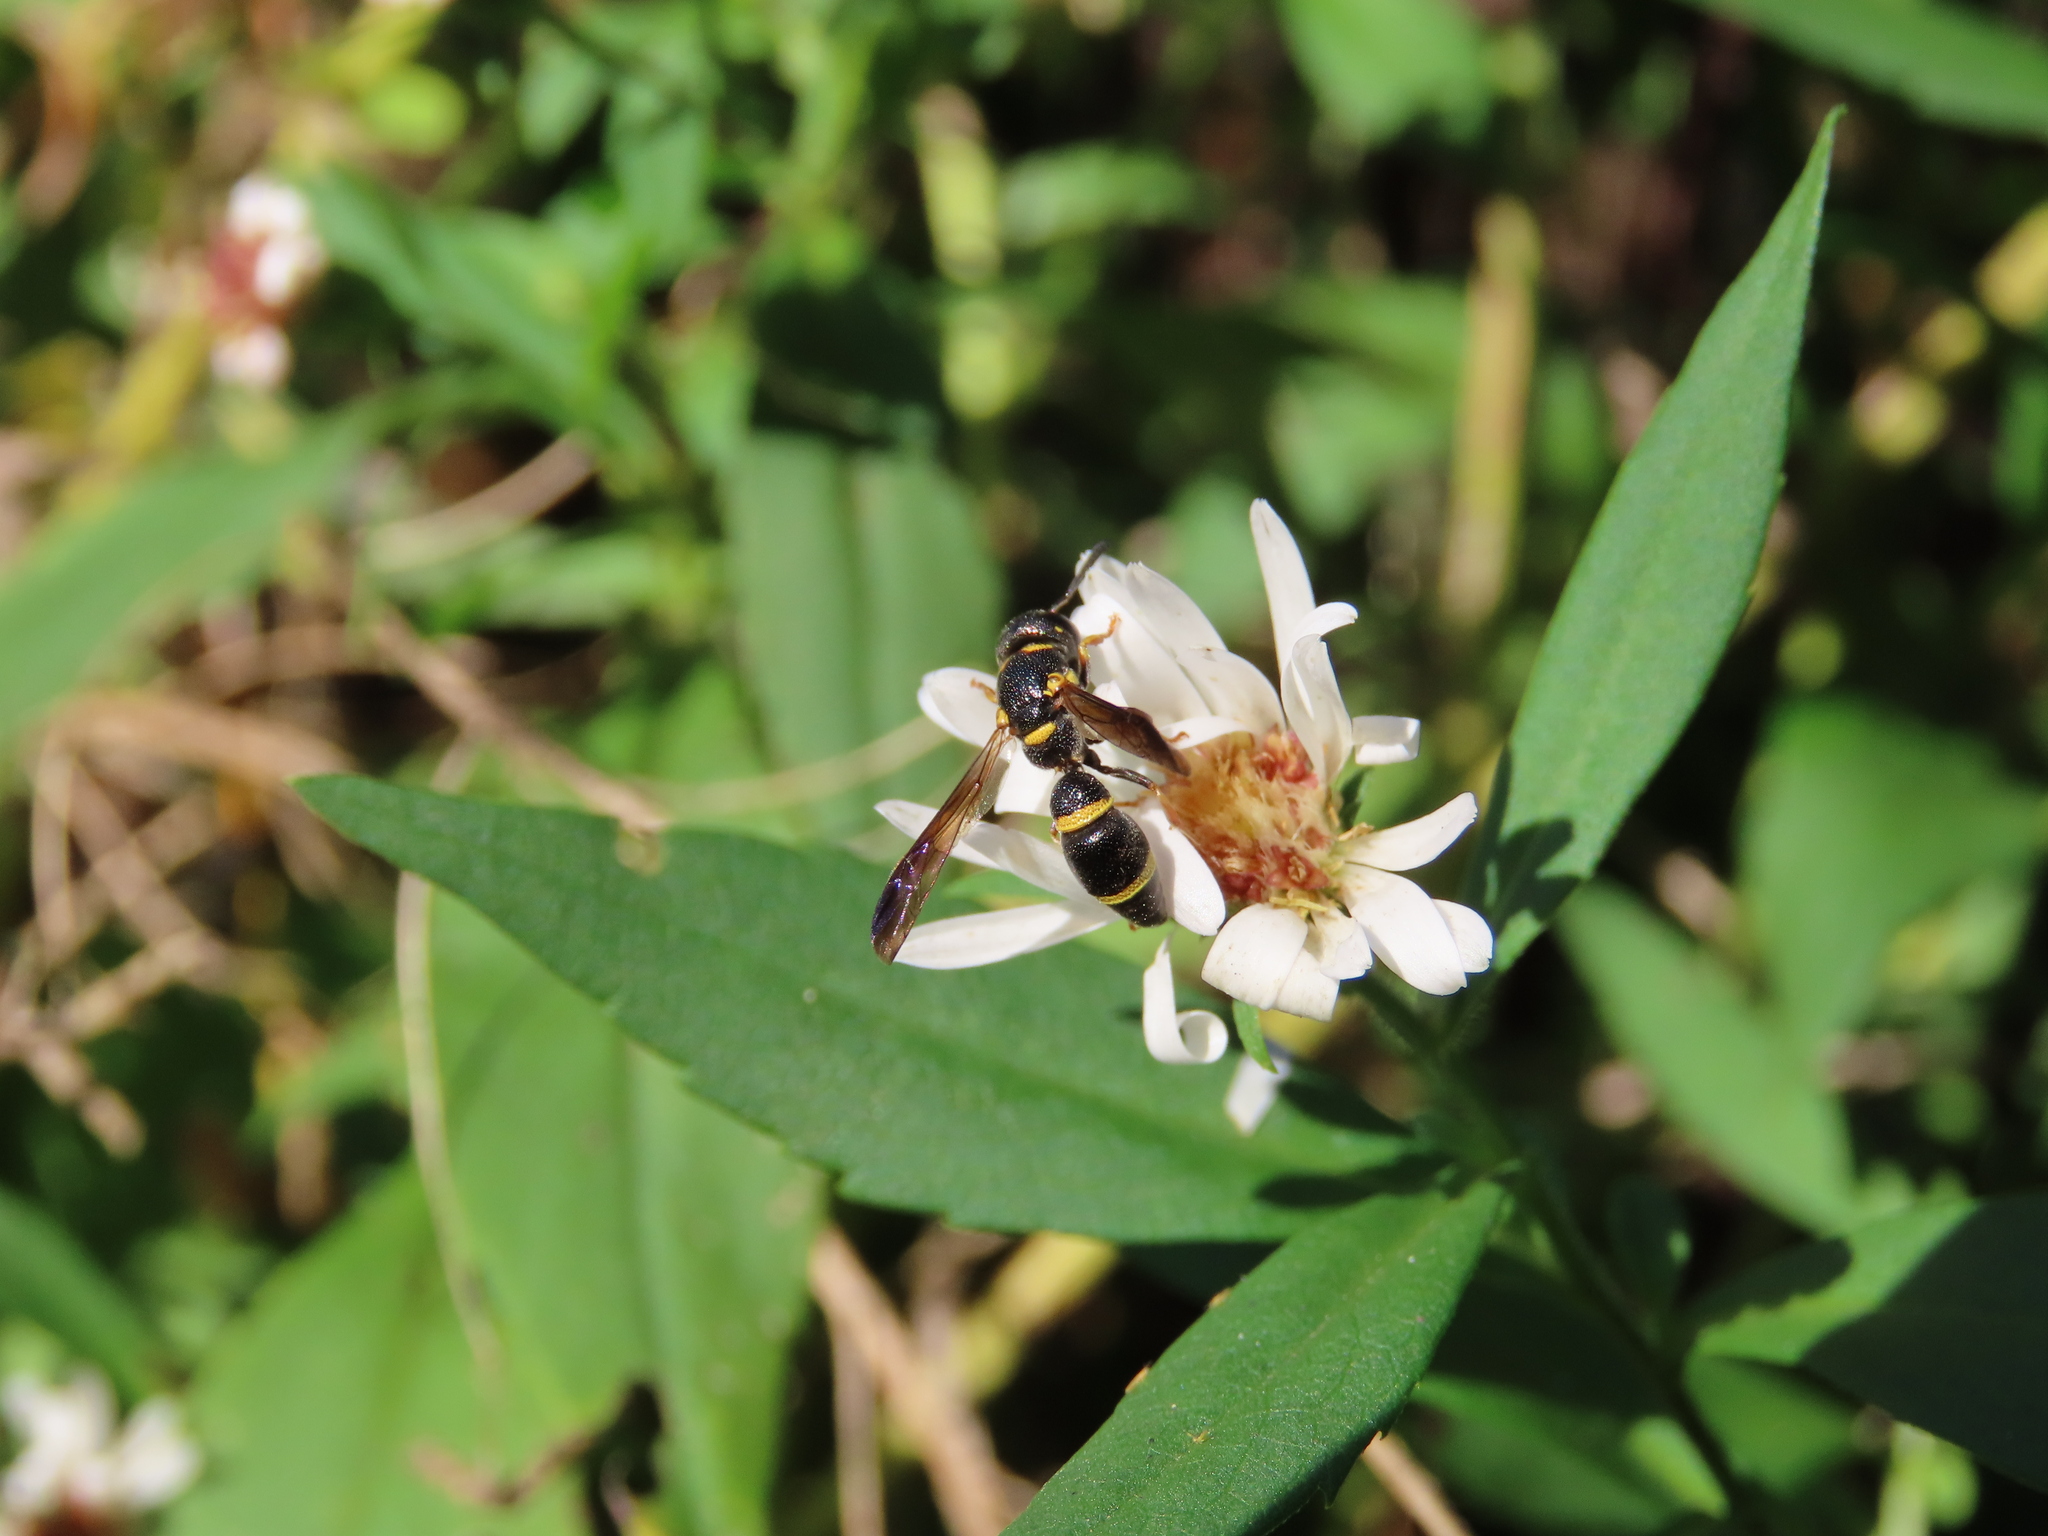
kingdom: Animalia
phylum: Arthropoda
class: Insecta
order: Hymenoptera
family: Eumenidae
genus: Parancistrocerus
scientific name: Parancistrocerus perennis
